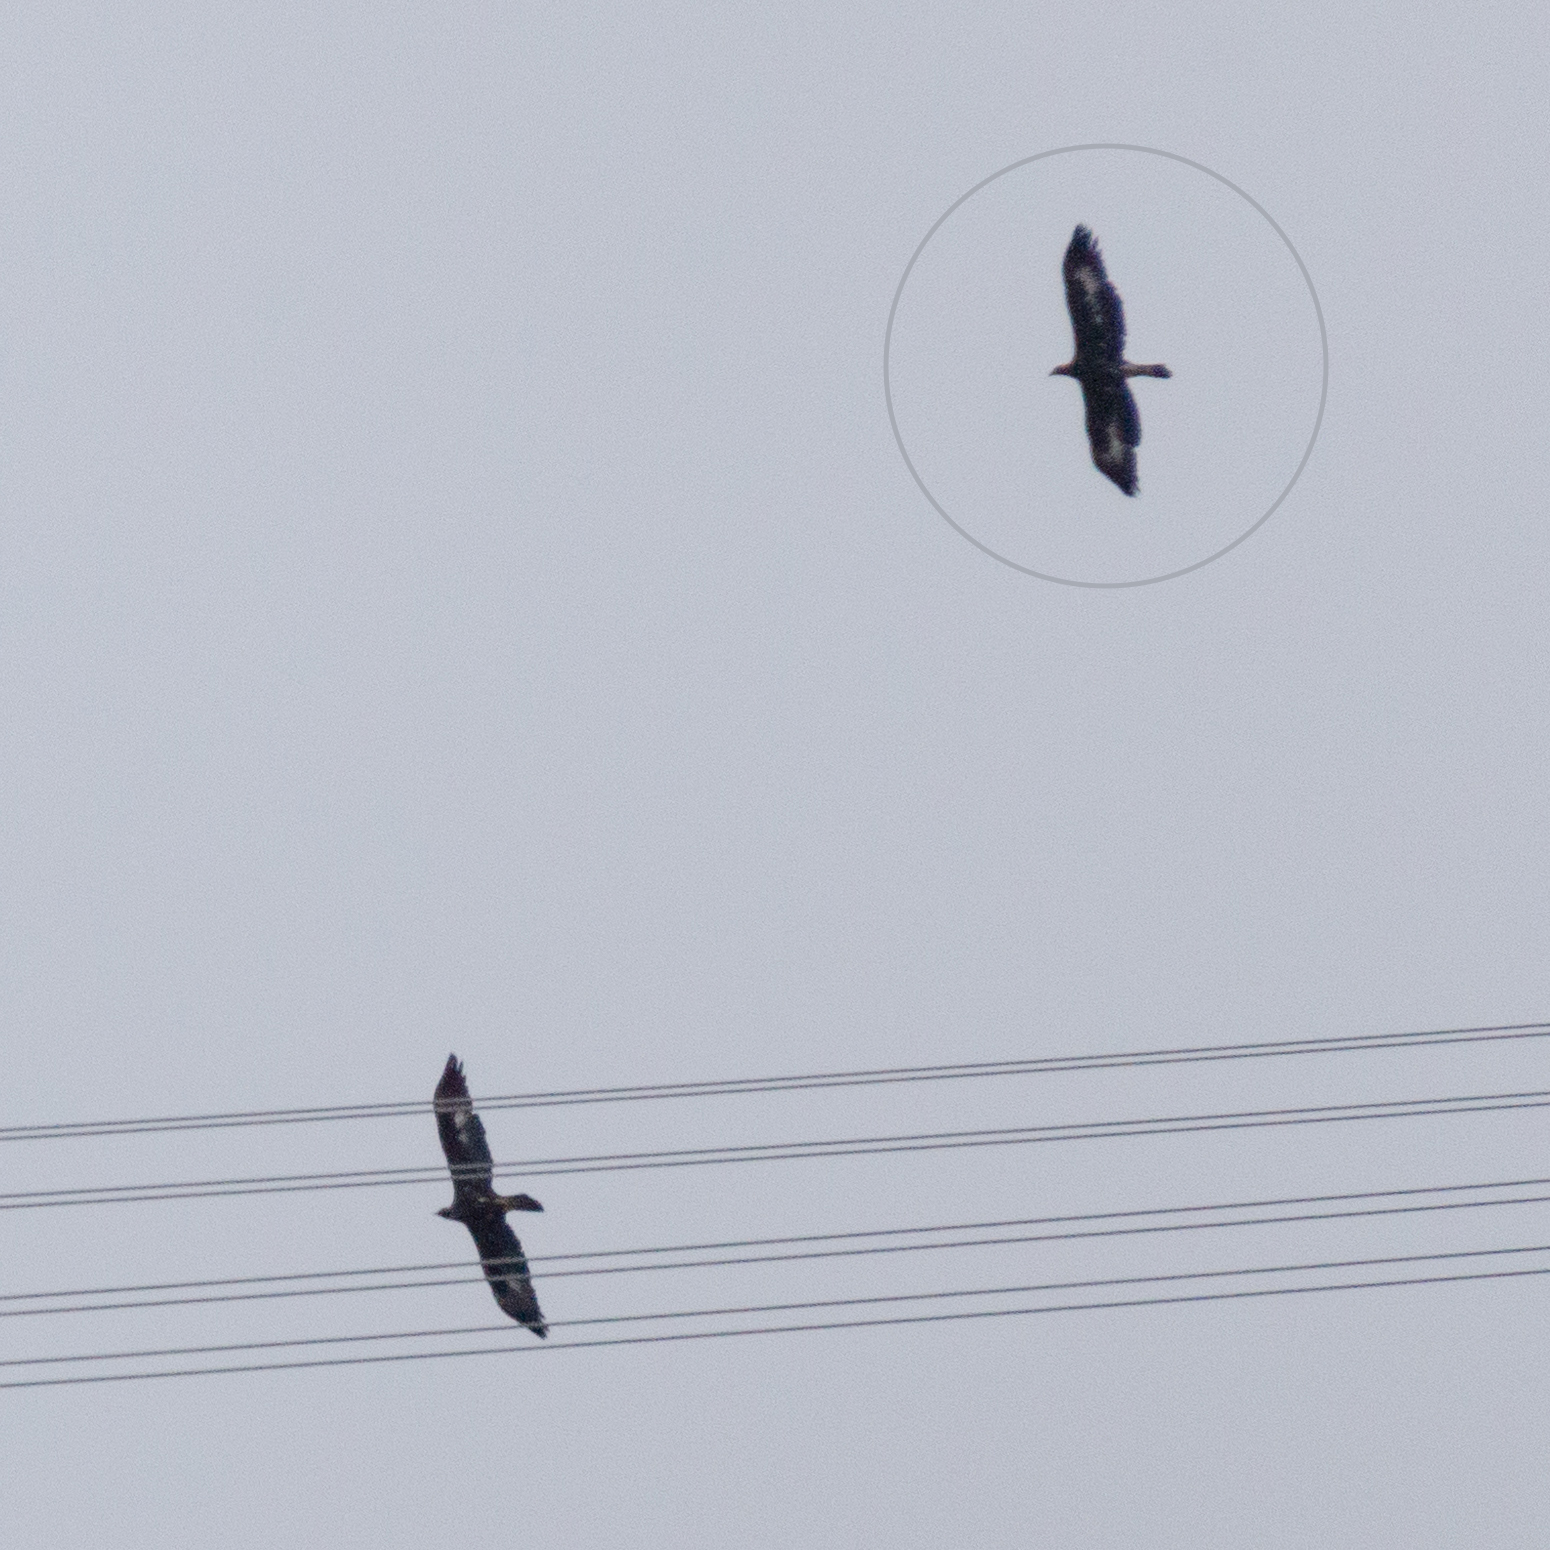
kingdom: Animalia
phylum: Chordata
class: Aves
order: Accipitriformes
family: Accipitridae
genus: Aquila
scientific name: Aquila chrysaetos
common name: Golden eagle
